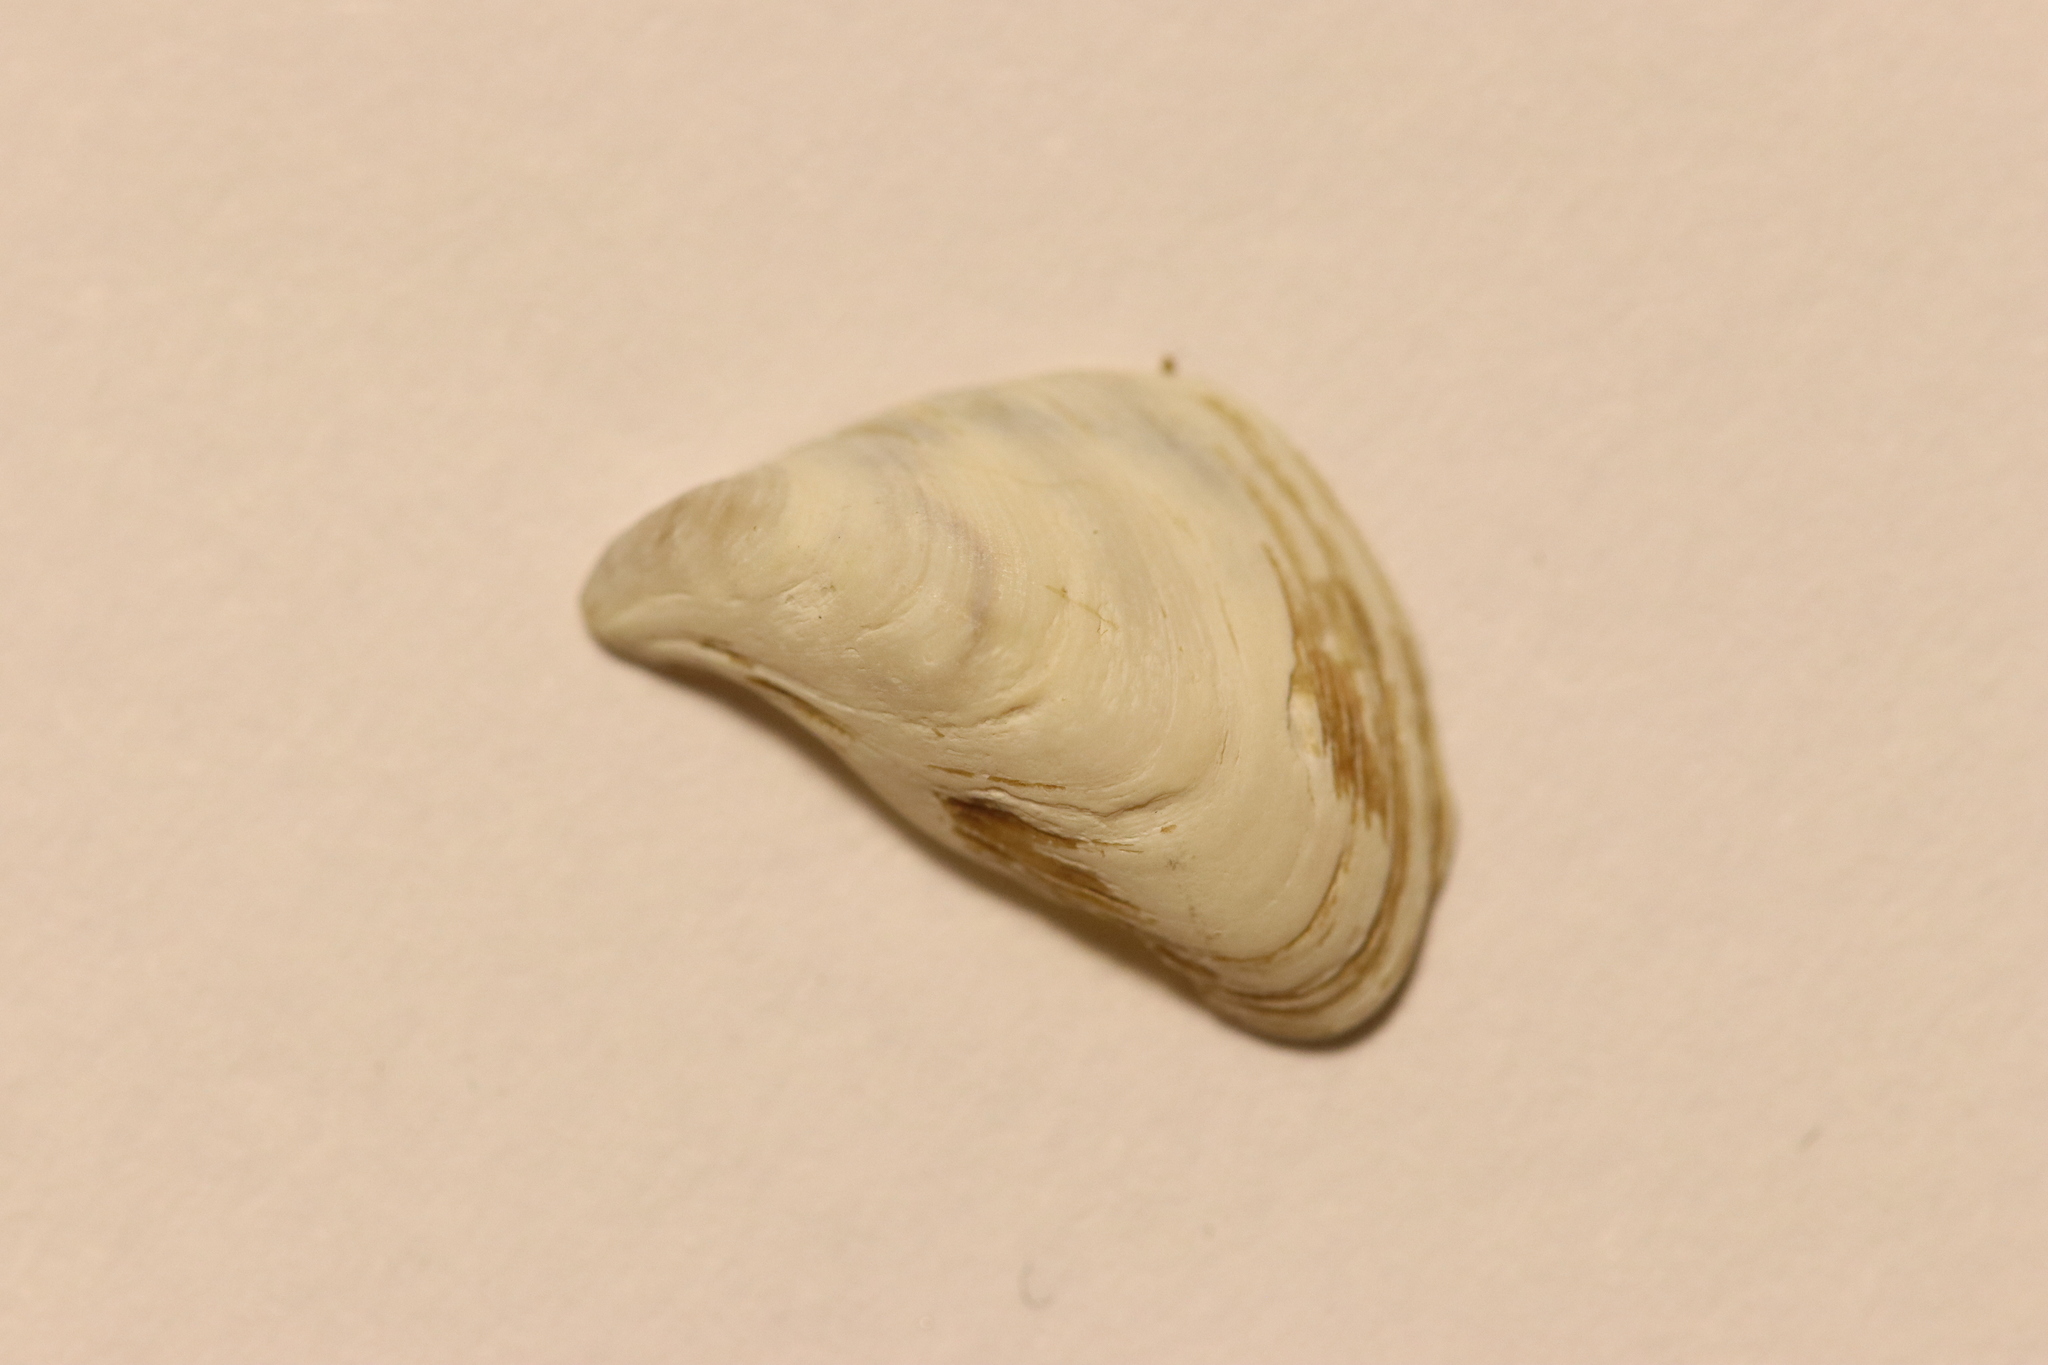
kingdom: Animalia
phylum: Mollusca
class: Bivalvia
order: Myida
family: Dreissenidae
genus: Dreissena
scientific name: Dreissena bugensis
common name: Quagga mussel
